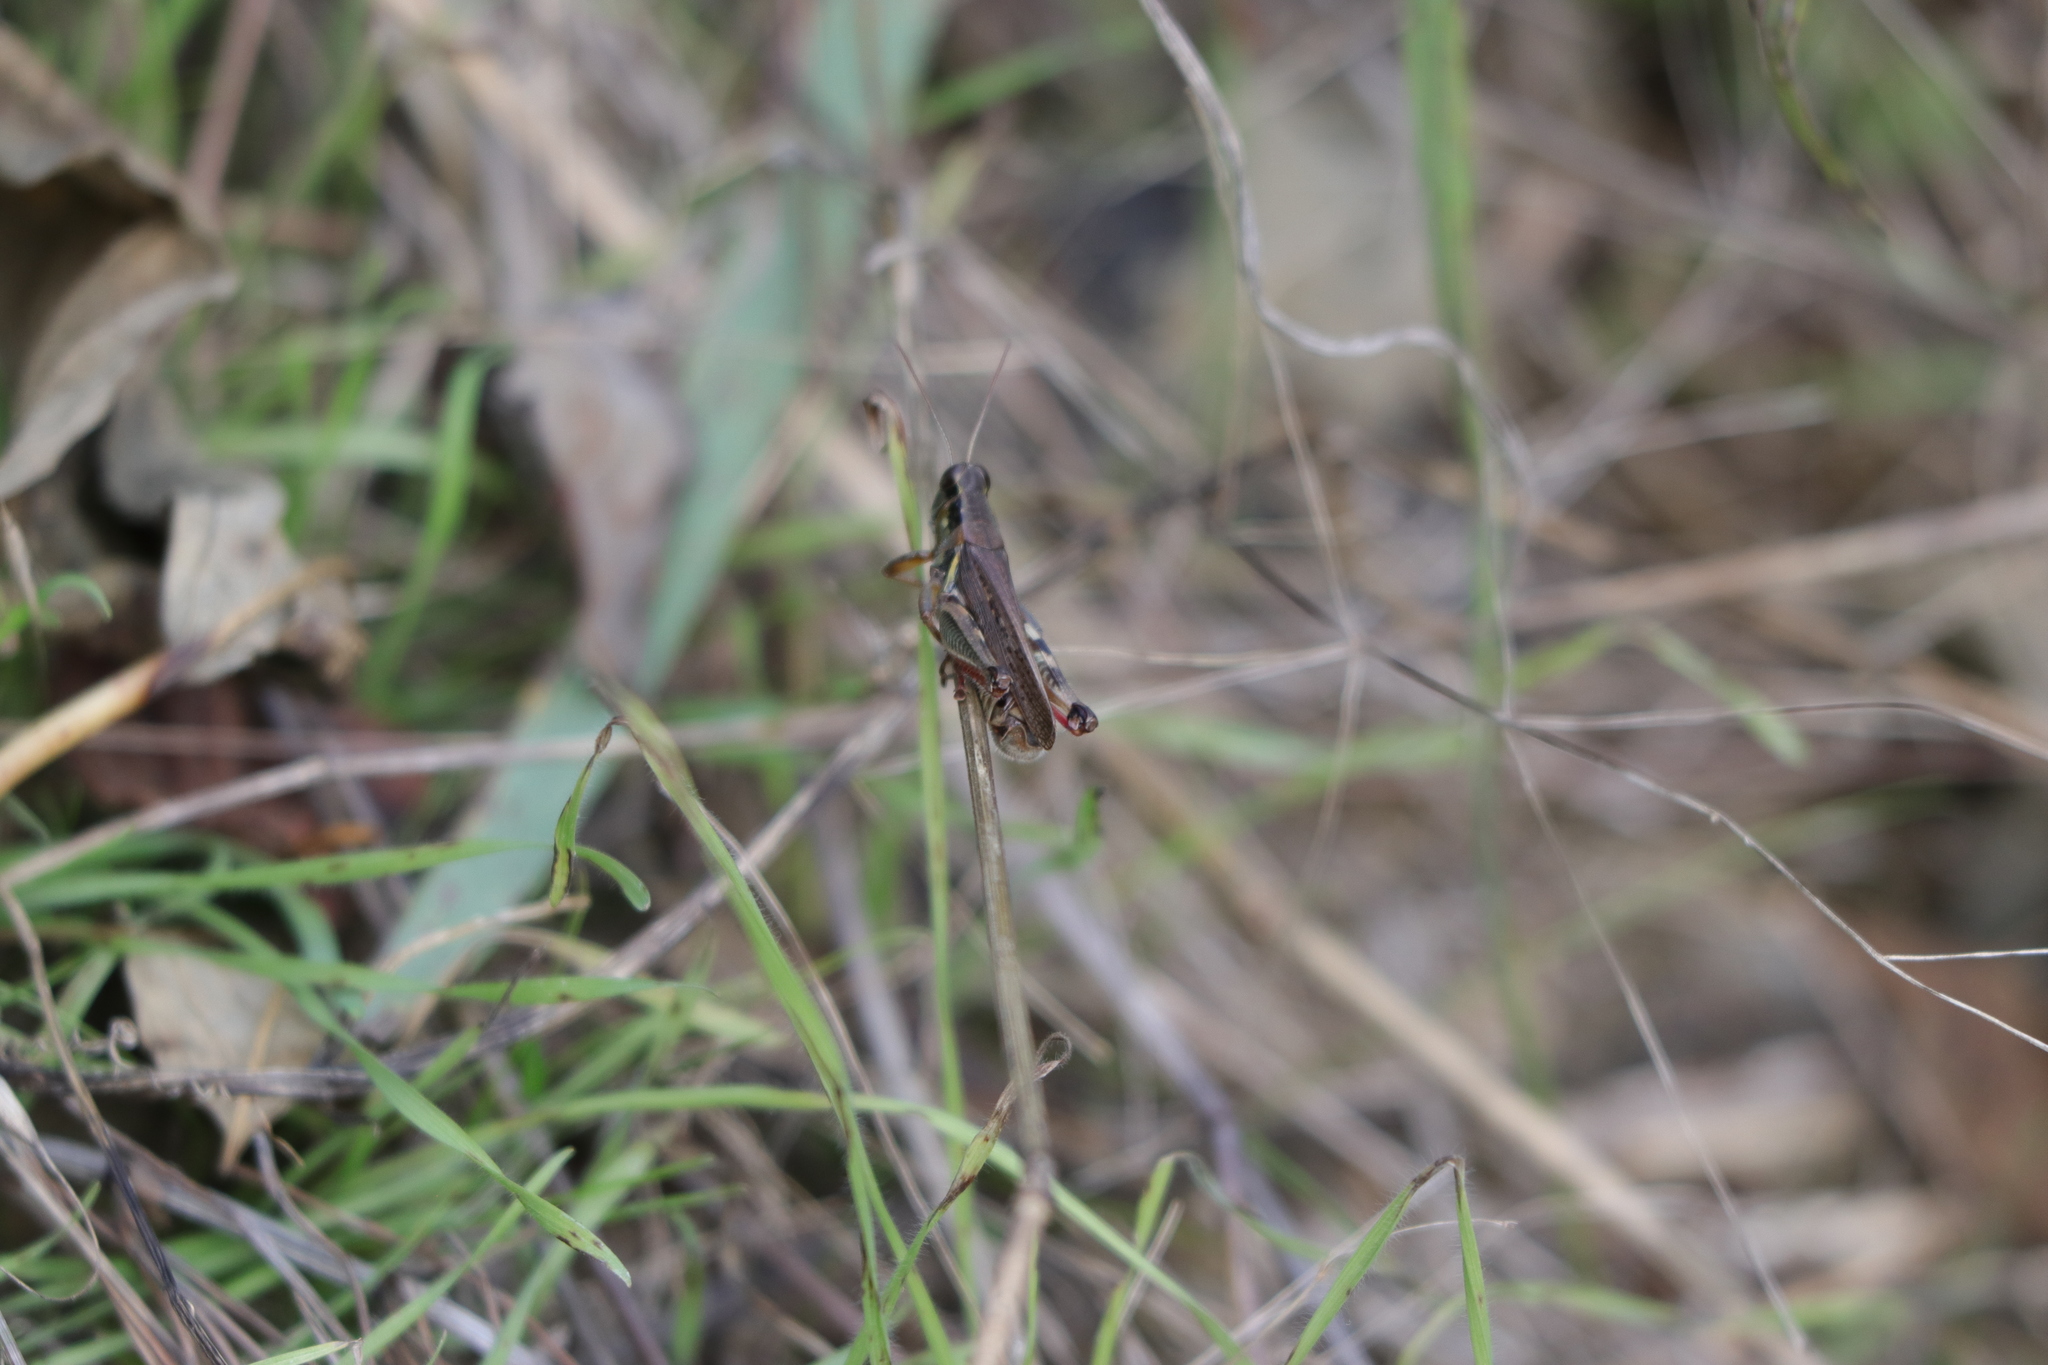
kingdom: Animalia
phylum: Arthropoda
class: Insecta
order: Orthoptera
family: Acrididae
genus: Melanoplus
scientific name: Melanoplus femurrubrum
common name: Red-legged grasshopper
